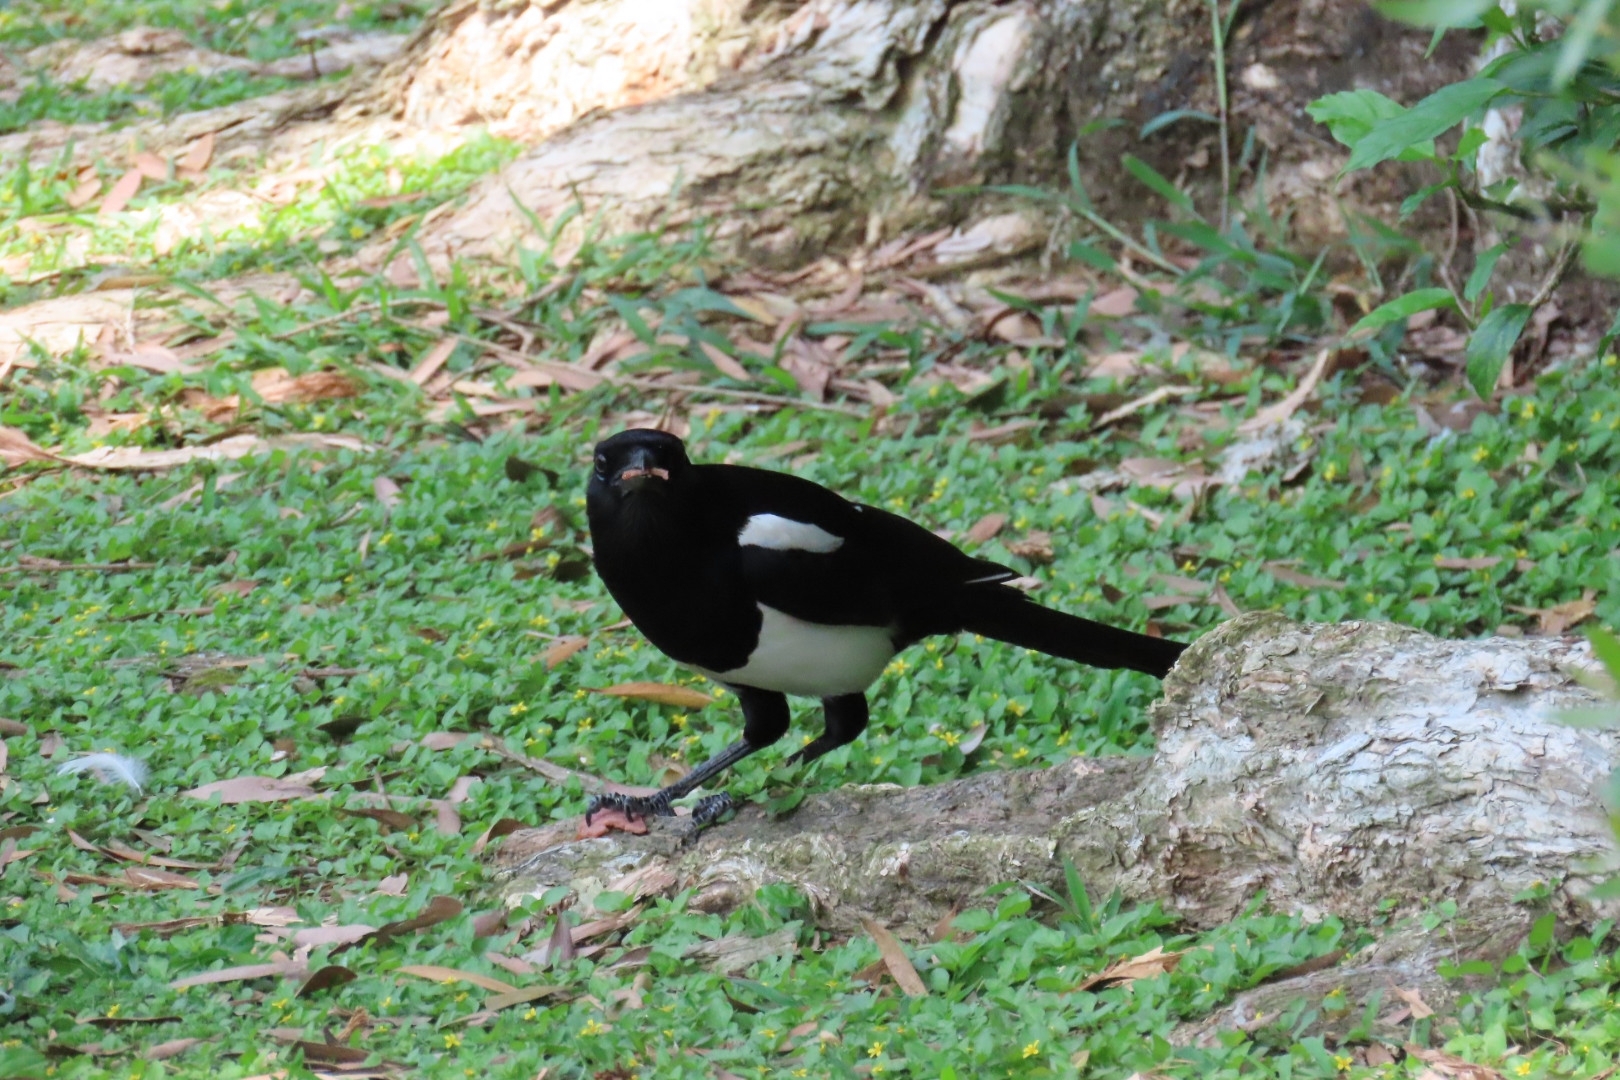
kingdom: Animalia
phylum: Chordata
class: Aves
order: Passeriformes
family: Corvidae
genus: Pica
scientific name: Pica serica
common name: Oriental magpie
